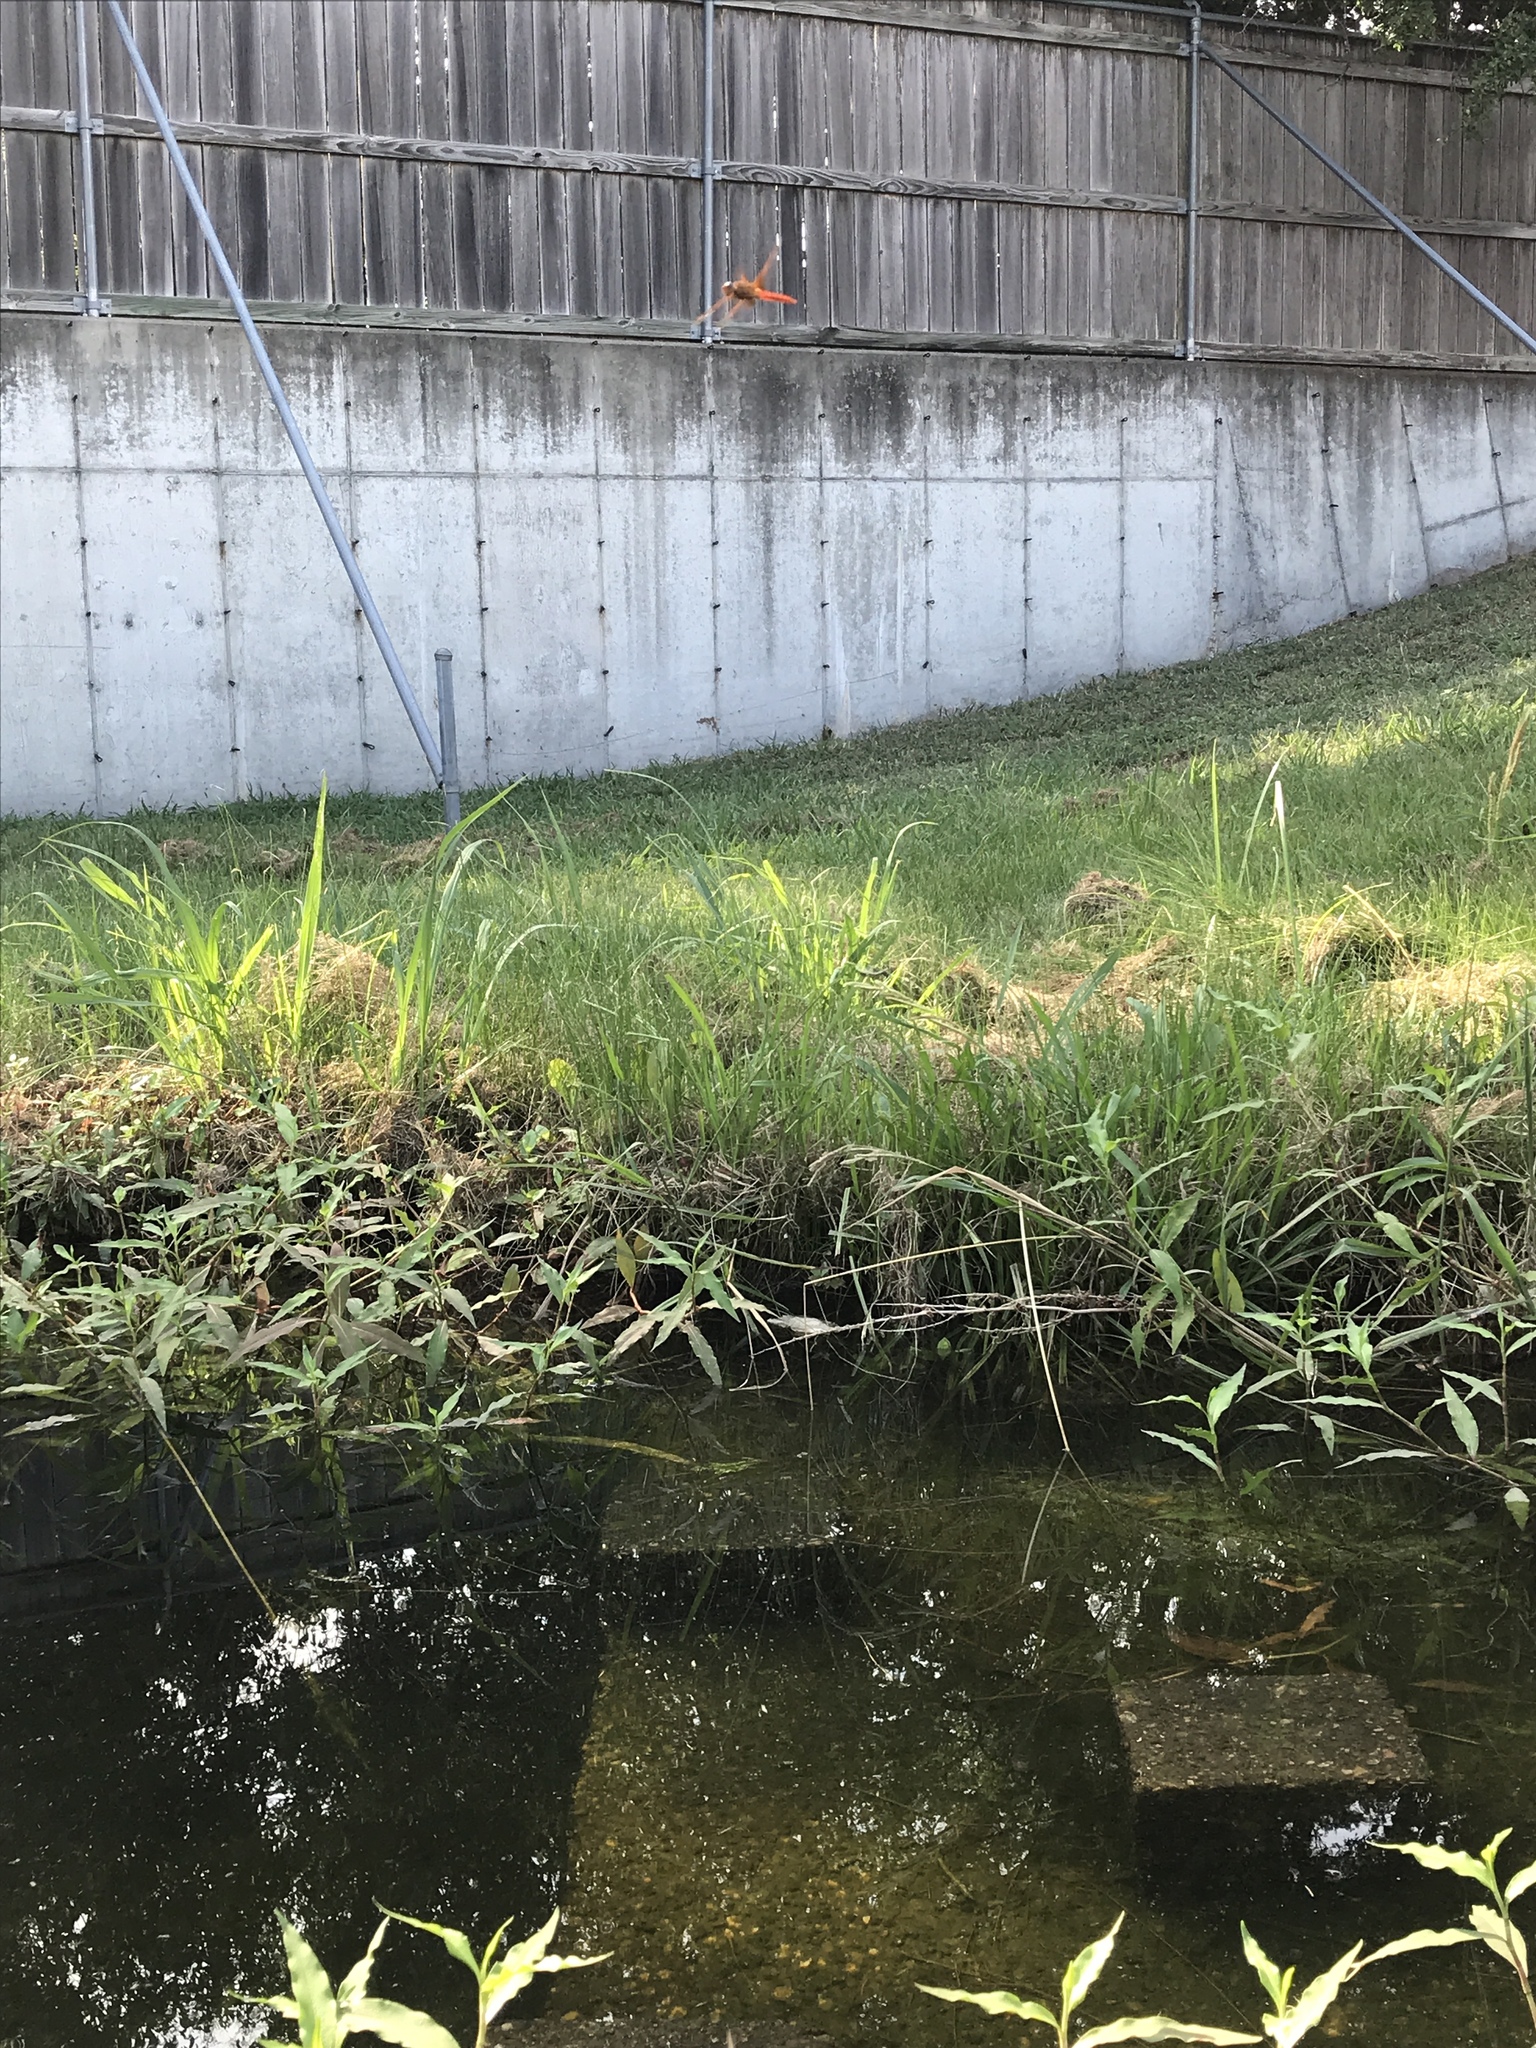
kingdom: Animalia
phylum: Arthropoda
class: Insecta
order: Odonata
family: Libellulidae
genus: Libellula
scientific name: Libellula croceipennis
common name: Neon skimmer
